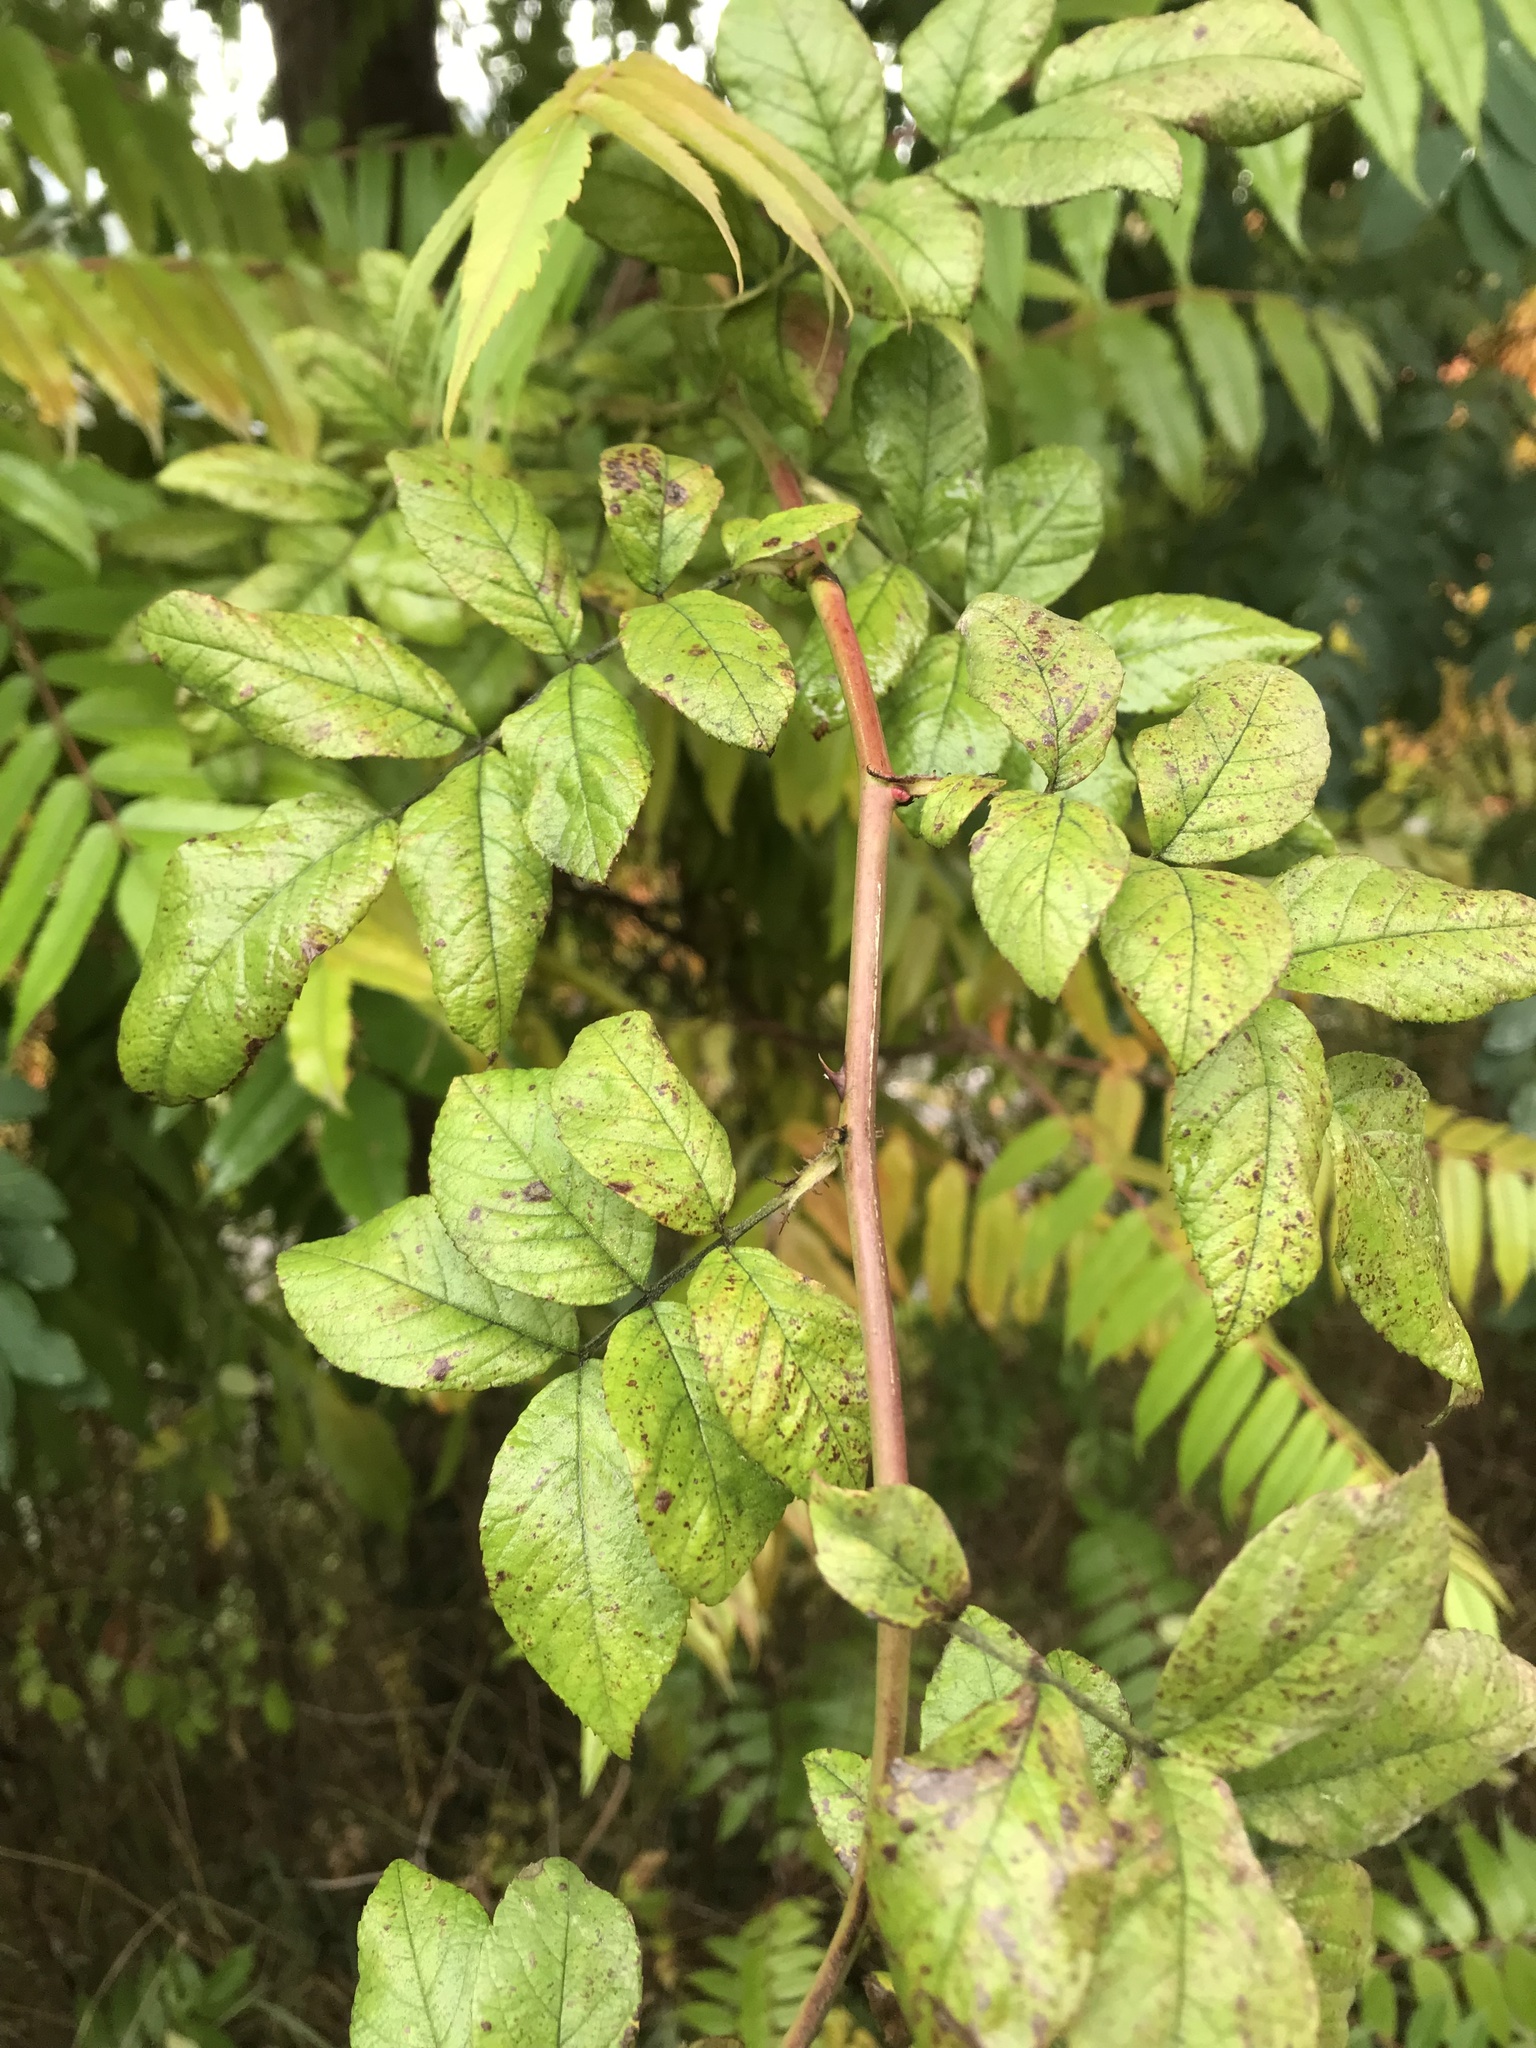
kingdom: Plantae
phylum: Tracheophyta
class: Magnoliopsida
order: Rosales
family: Rosaceae
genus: Rosa
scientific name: Rosa multiflora
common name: Multiflora rose
